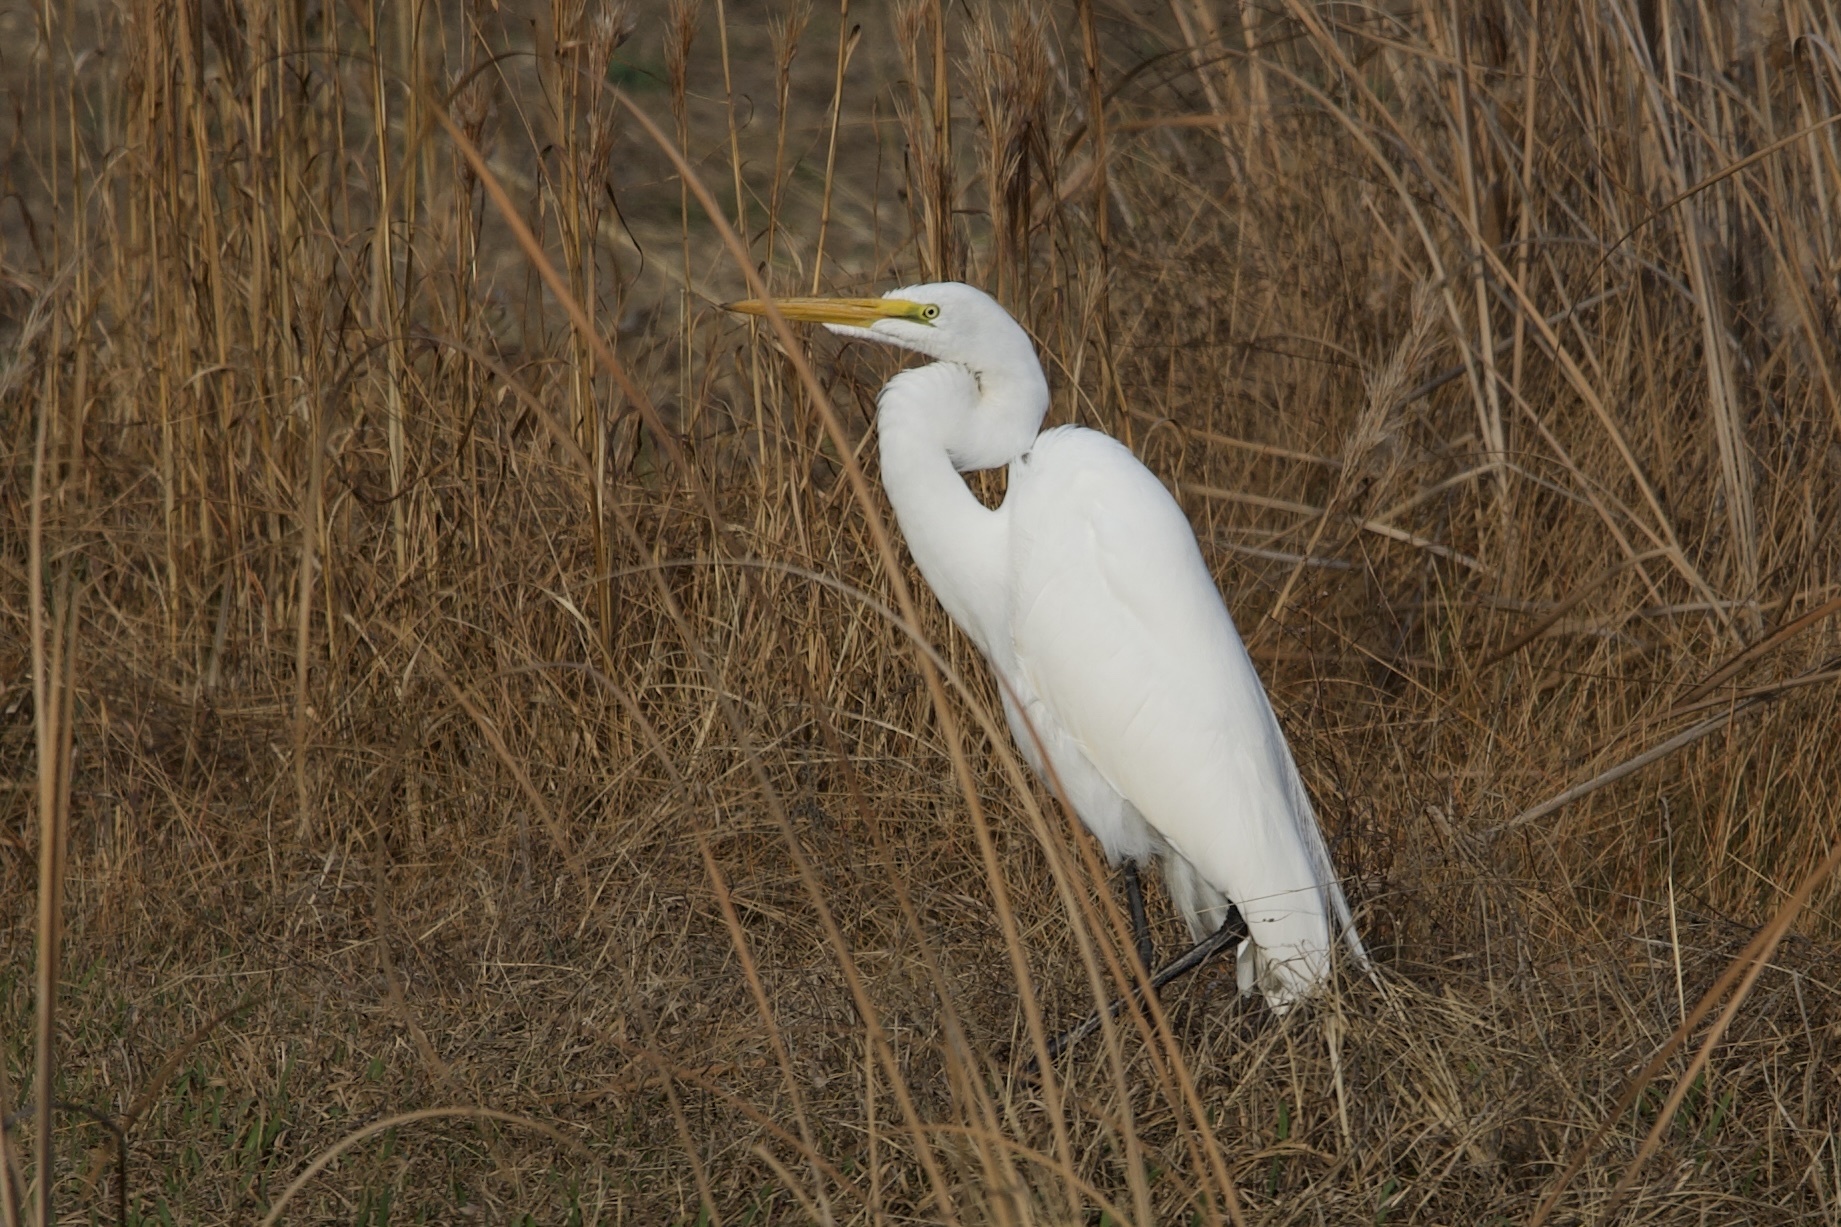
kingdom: Animalia
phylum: Chordata
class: Aves
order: Pelecaniformes
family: Ardeidae
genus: Ardea
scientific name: Ardea alba
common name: Great egret
